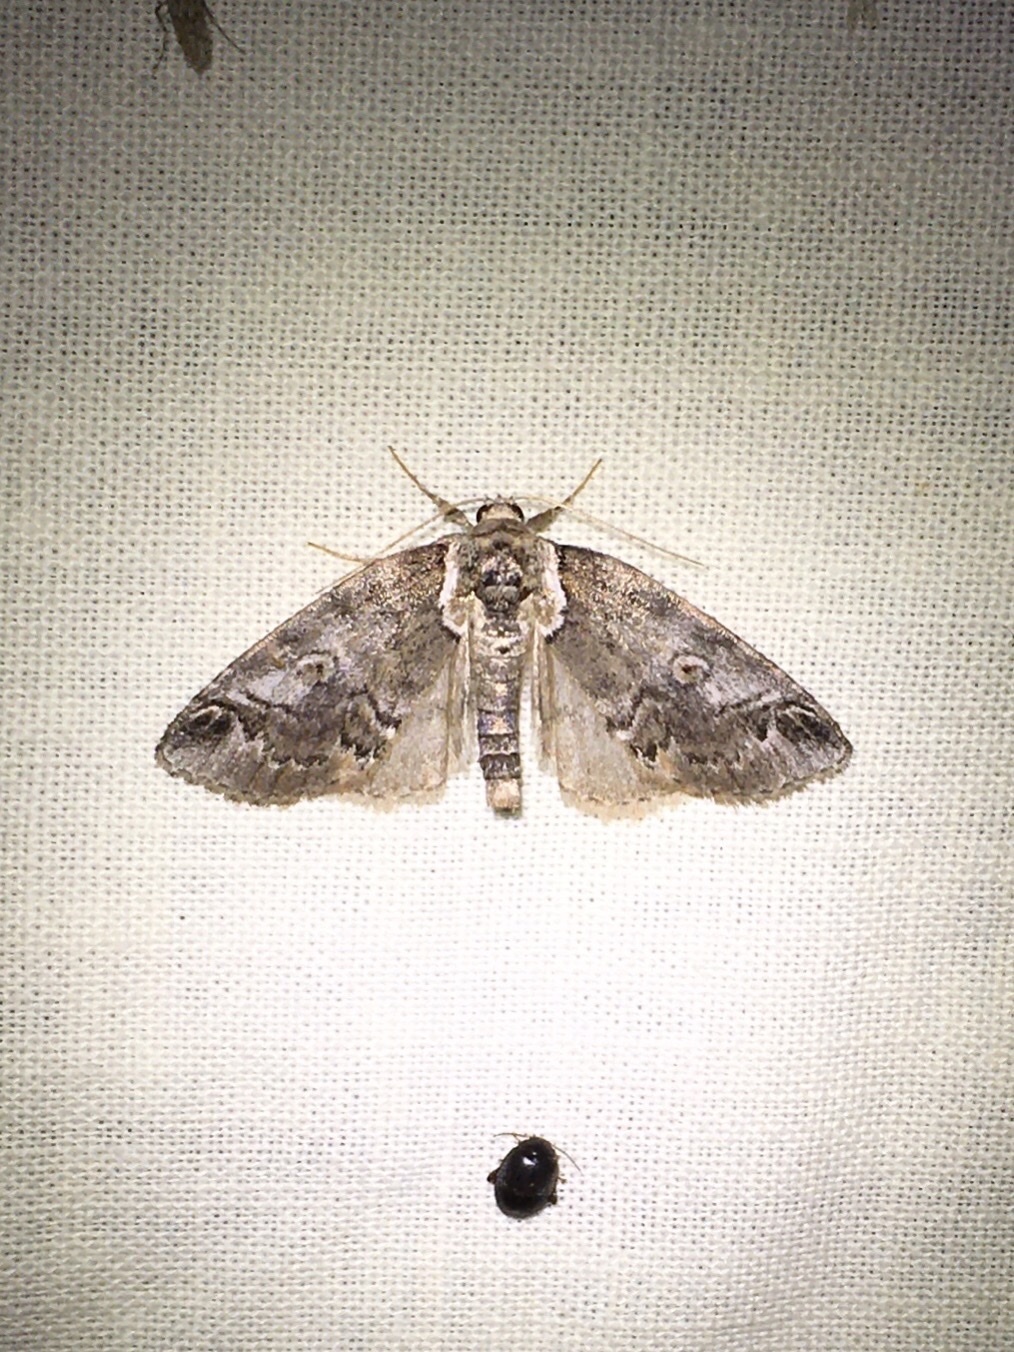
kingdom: Animalia
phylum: Arthropoda
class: Insecta
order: Lepidoptera
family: Nolidae
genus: Baileya
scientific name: Baileya ophthalmica
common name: Eyed baileya moth
